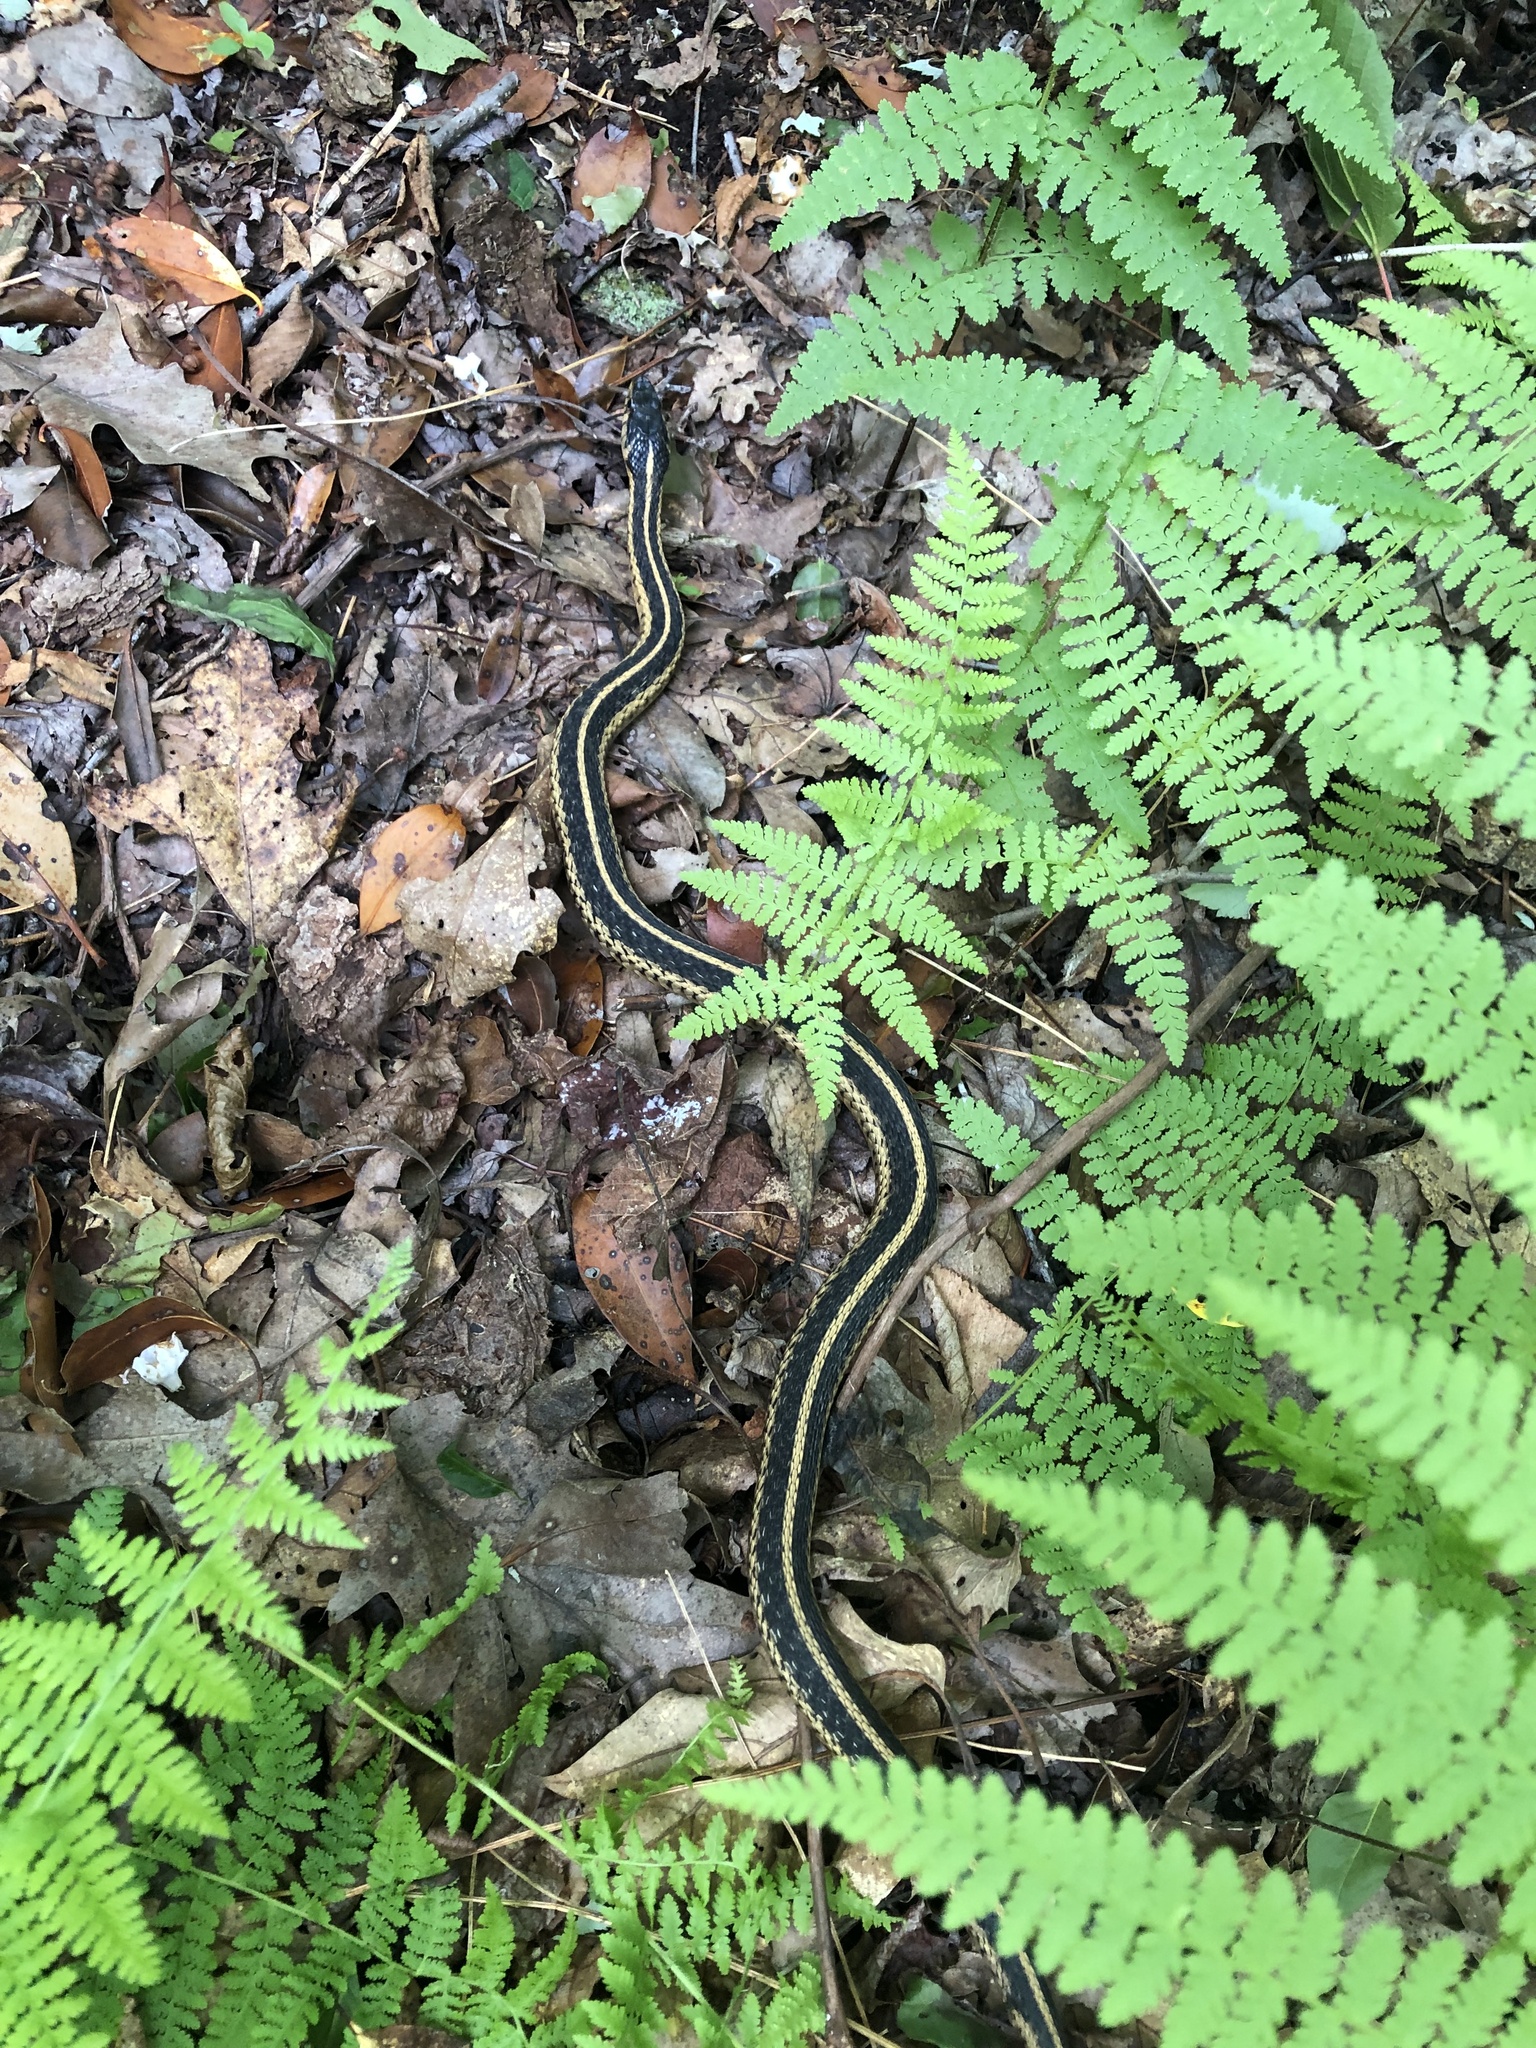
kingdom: Animalia
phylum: Chordata
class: Squamata
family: Colubridae
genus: Thamnophis
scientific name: Thamnophis sirtalis
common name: Common garter snake
